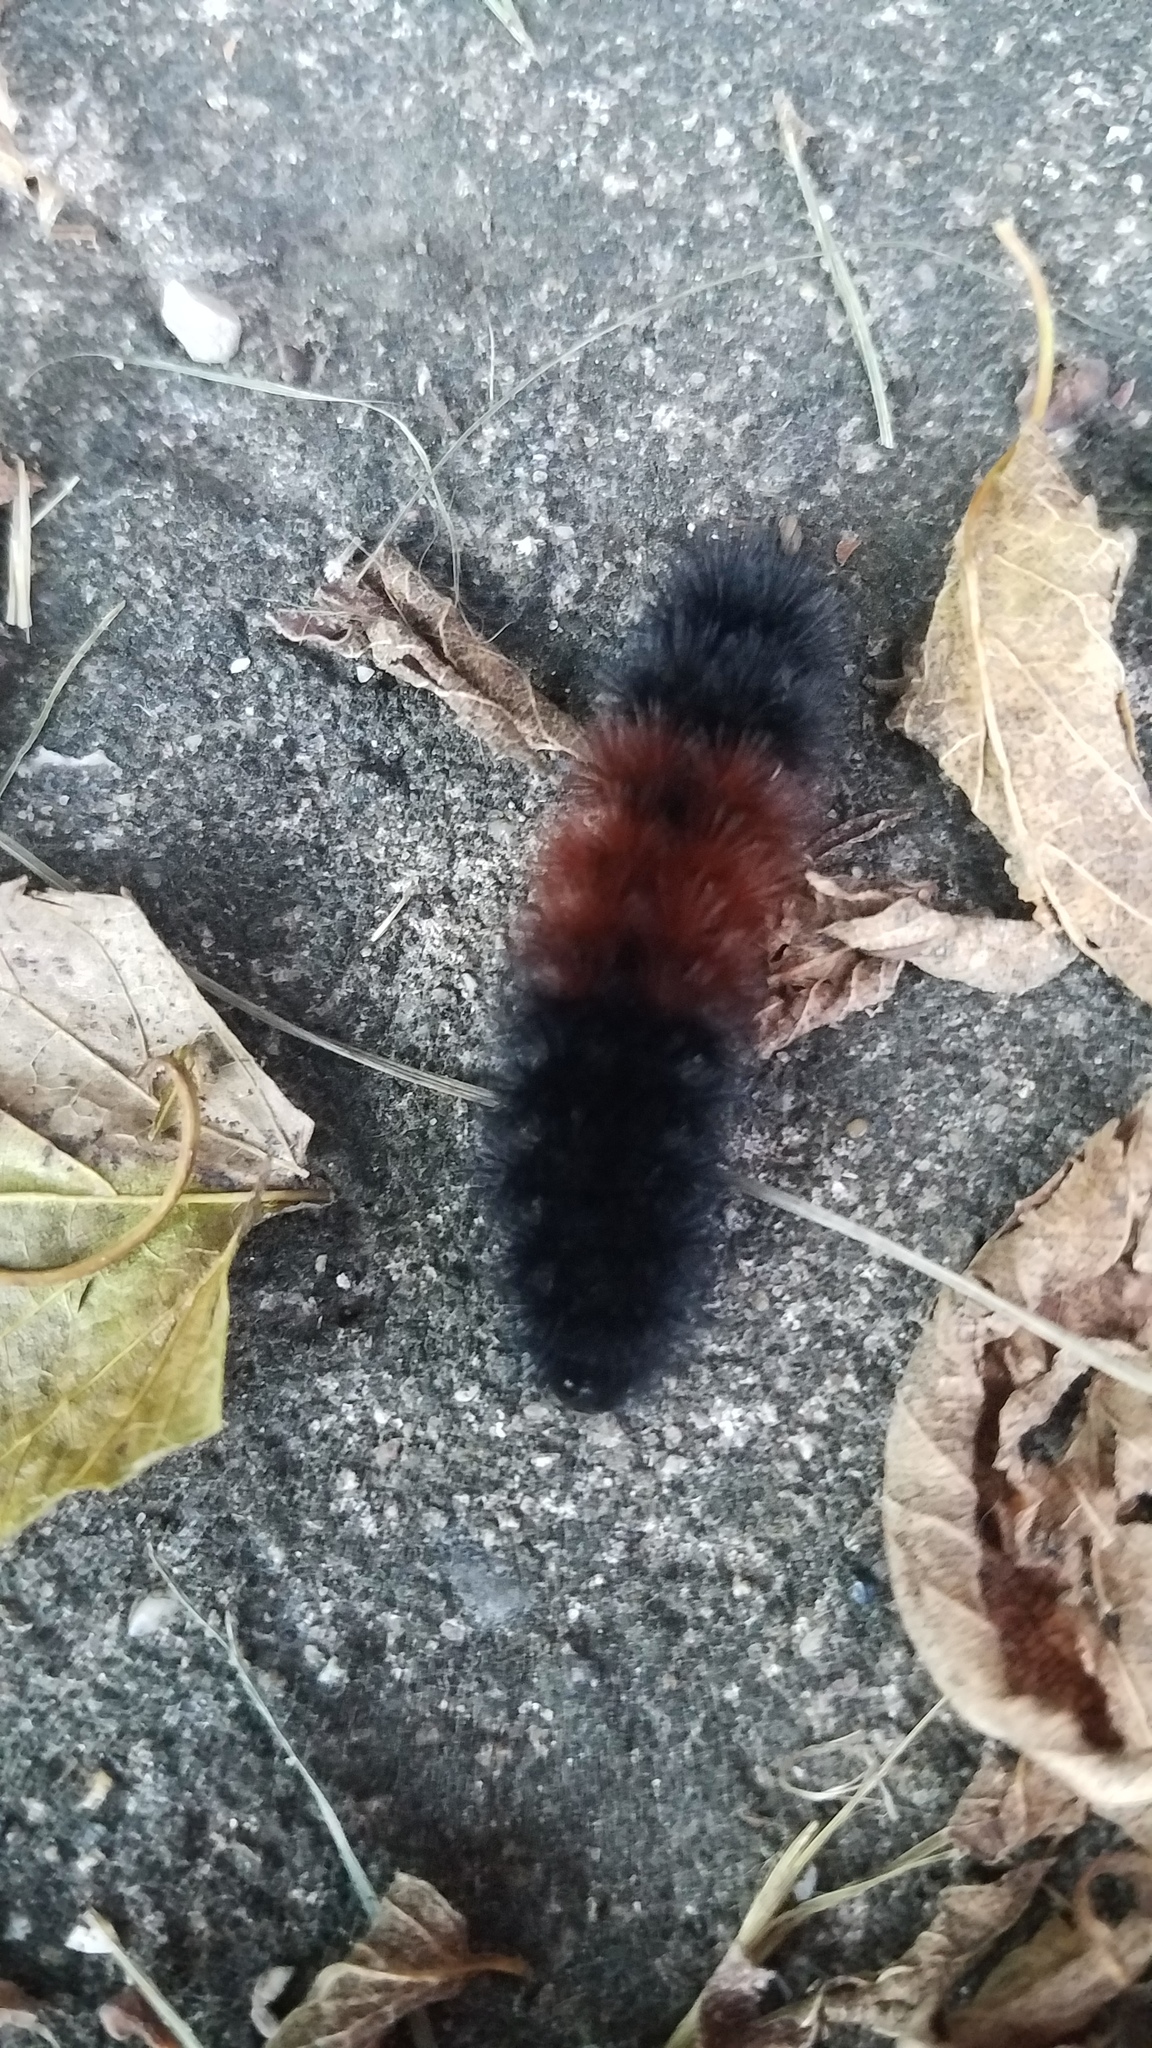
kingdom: Animalia
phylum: Arthropoda
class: Insecta
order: Lepidoptera
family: Erebidae
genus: Pyrrharctia
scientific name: Pyrrharctia isabella
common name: Isabella tiger moth
